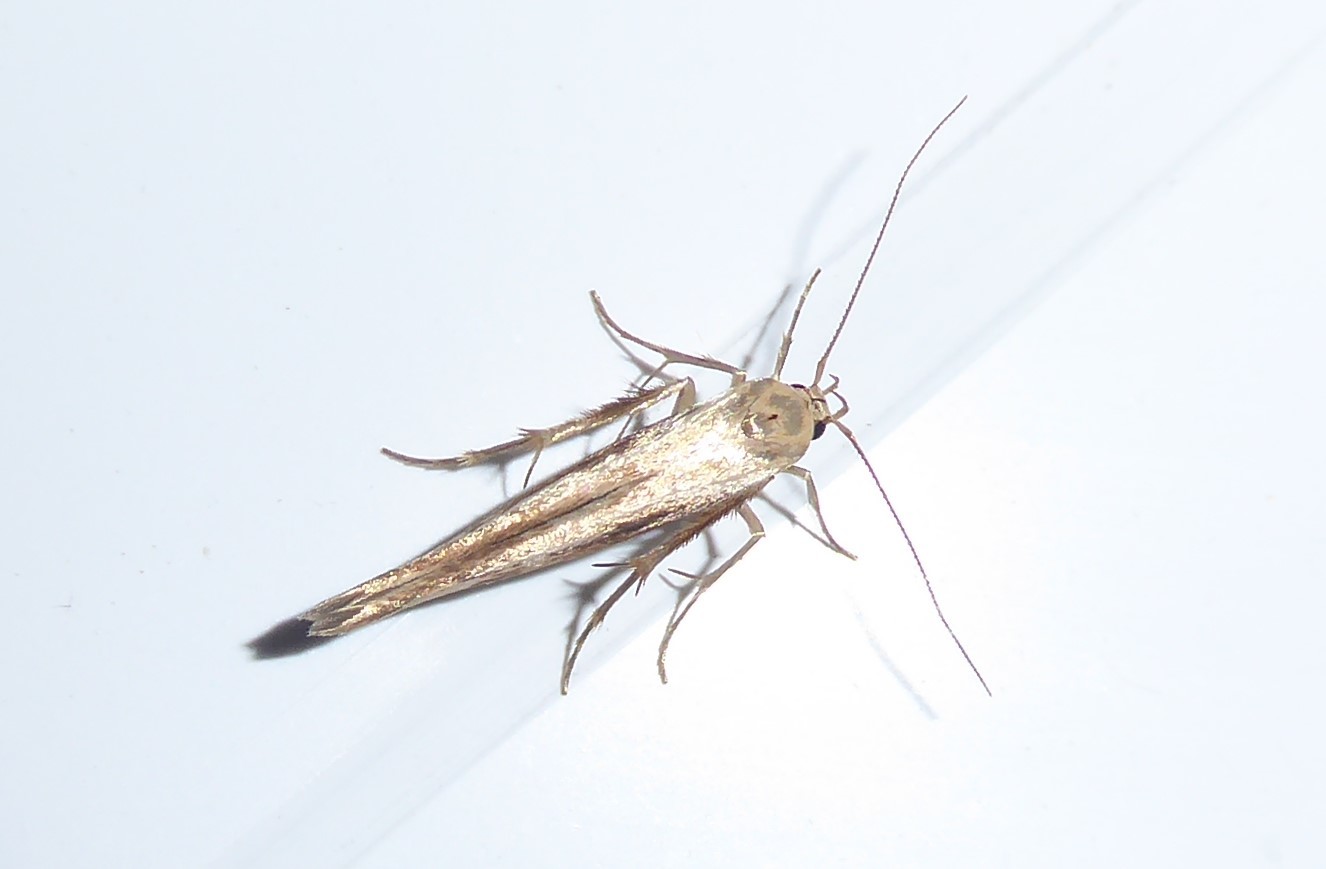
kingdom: Animalia
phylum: Arthropoda
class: Insecta
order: Lepidoptera
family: Stathmopodidae
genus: Stathmopoda
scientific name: Stathmopoda aposema
